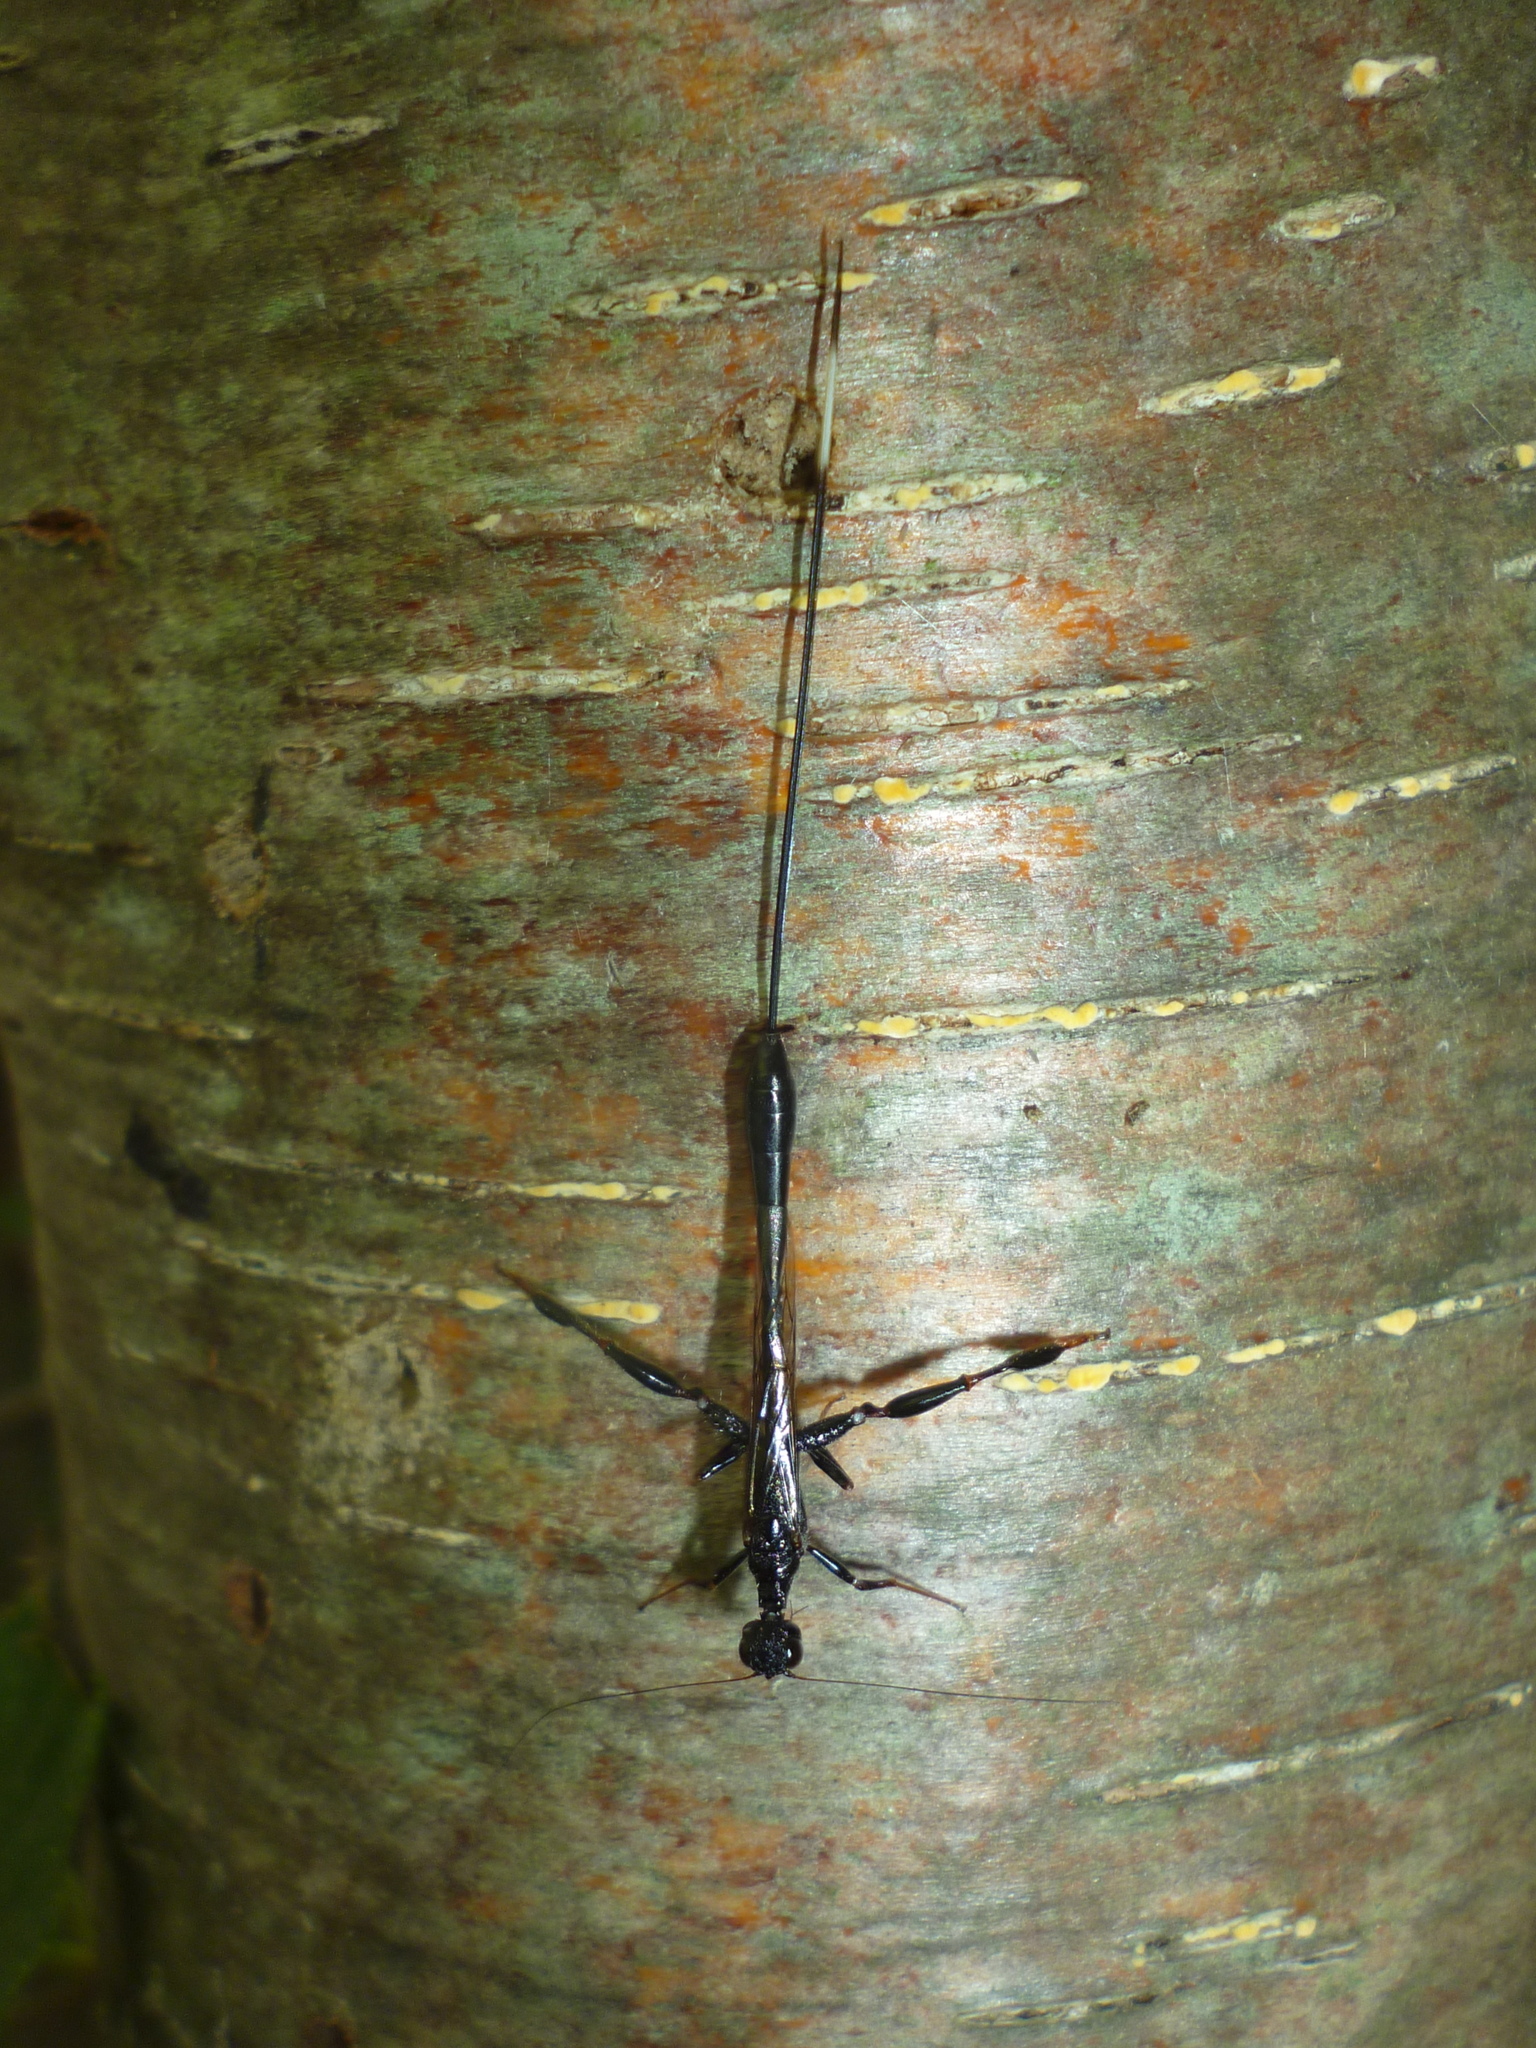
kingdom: Animalia
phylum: Arthropoda
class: Insecta
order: Hymenoptera
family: Stephanidae
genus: Megischus
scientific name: Megischus
